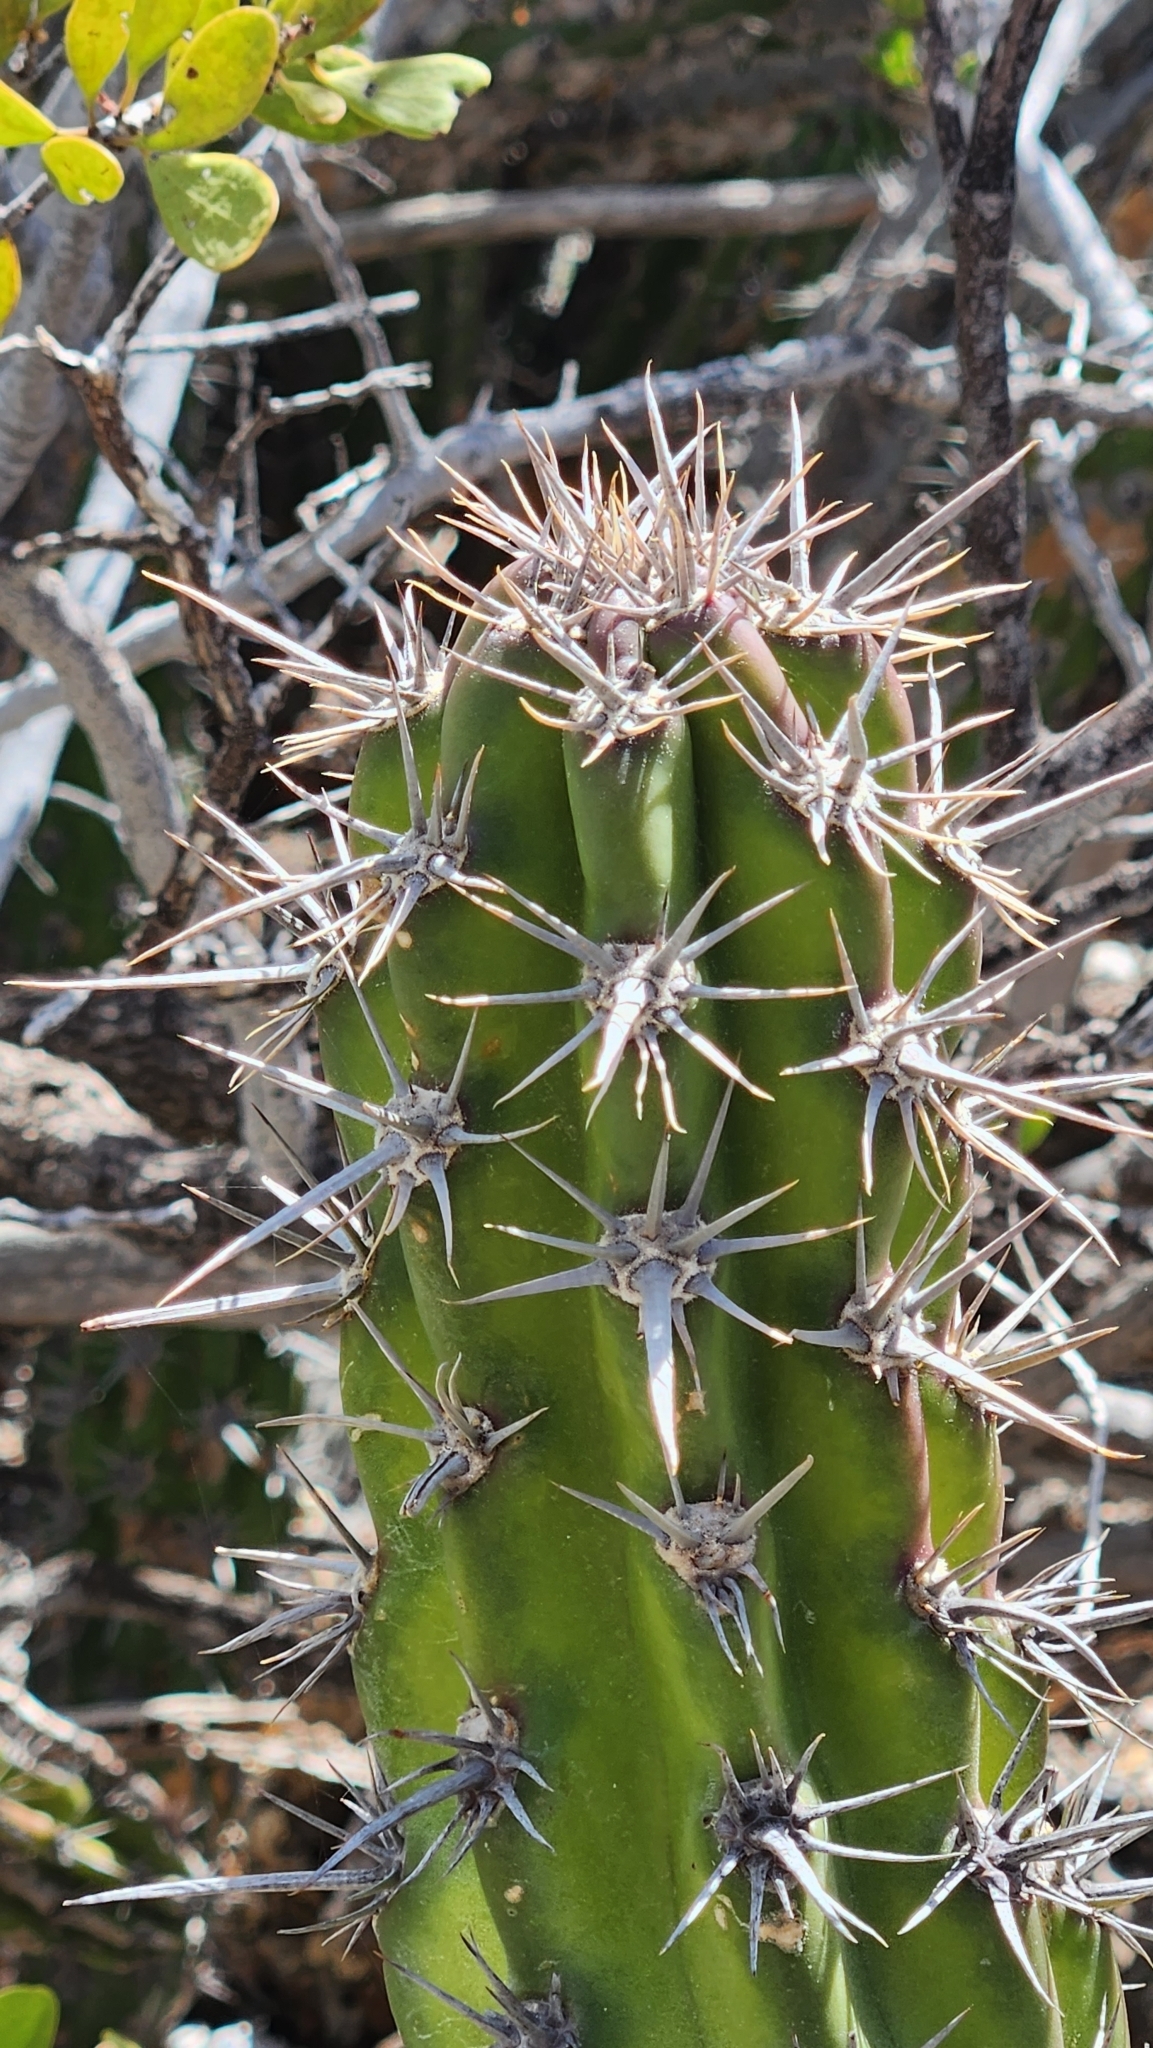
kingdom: Plantae
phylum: Tracheophyta
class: Magnoliopsida
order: Caryophyllales
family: Cactaceae
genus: Stenocereus
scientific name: Stenocereus gummosus
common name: Dagger cactus
